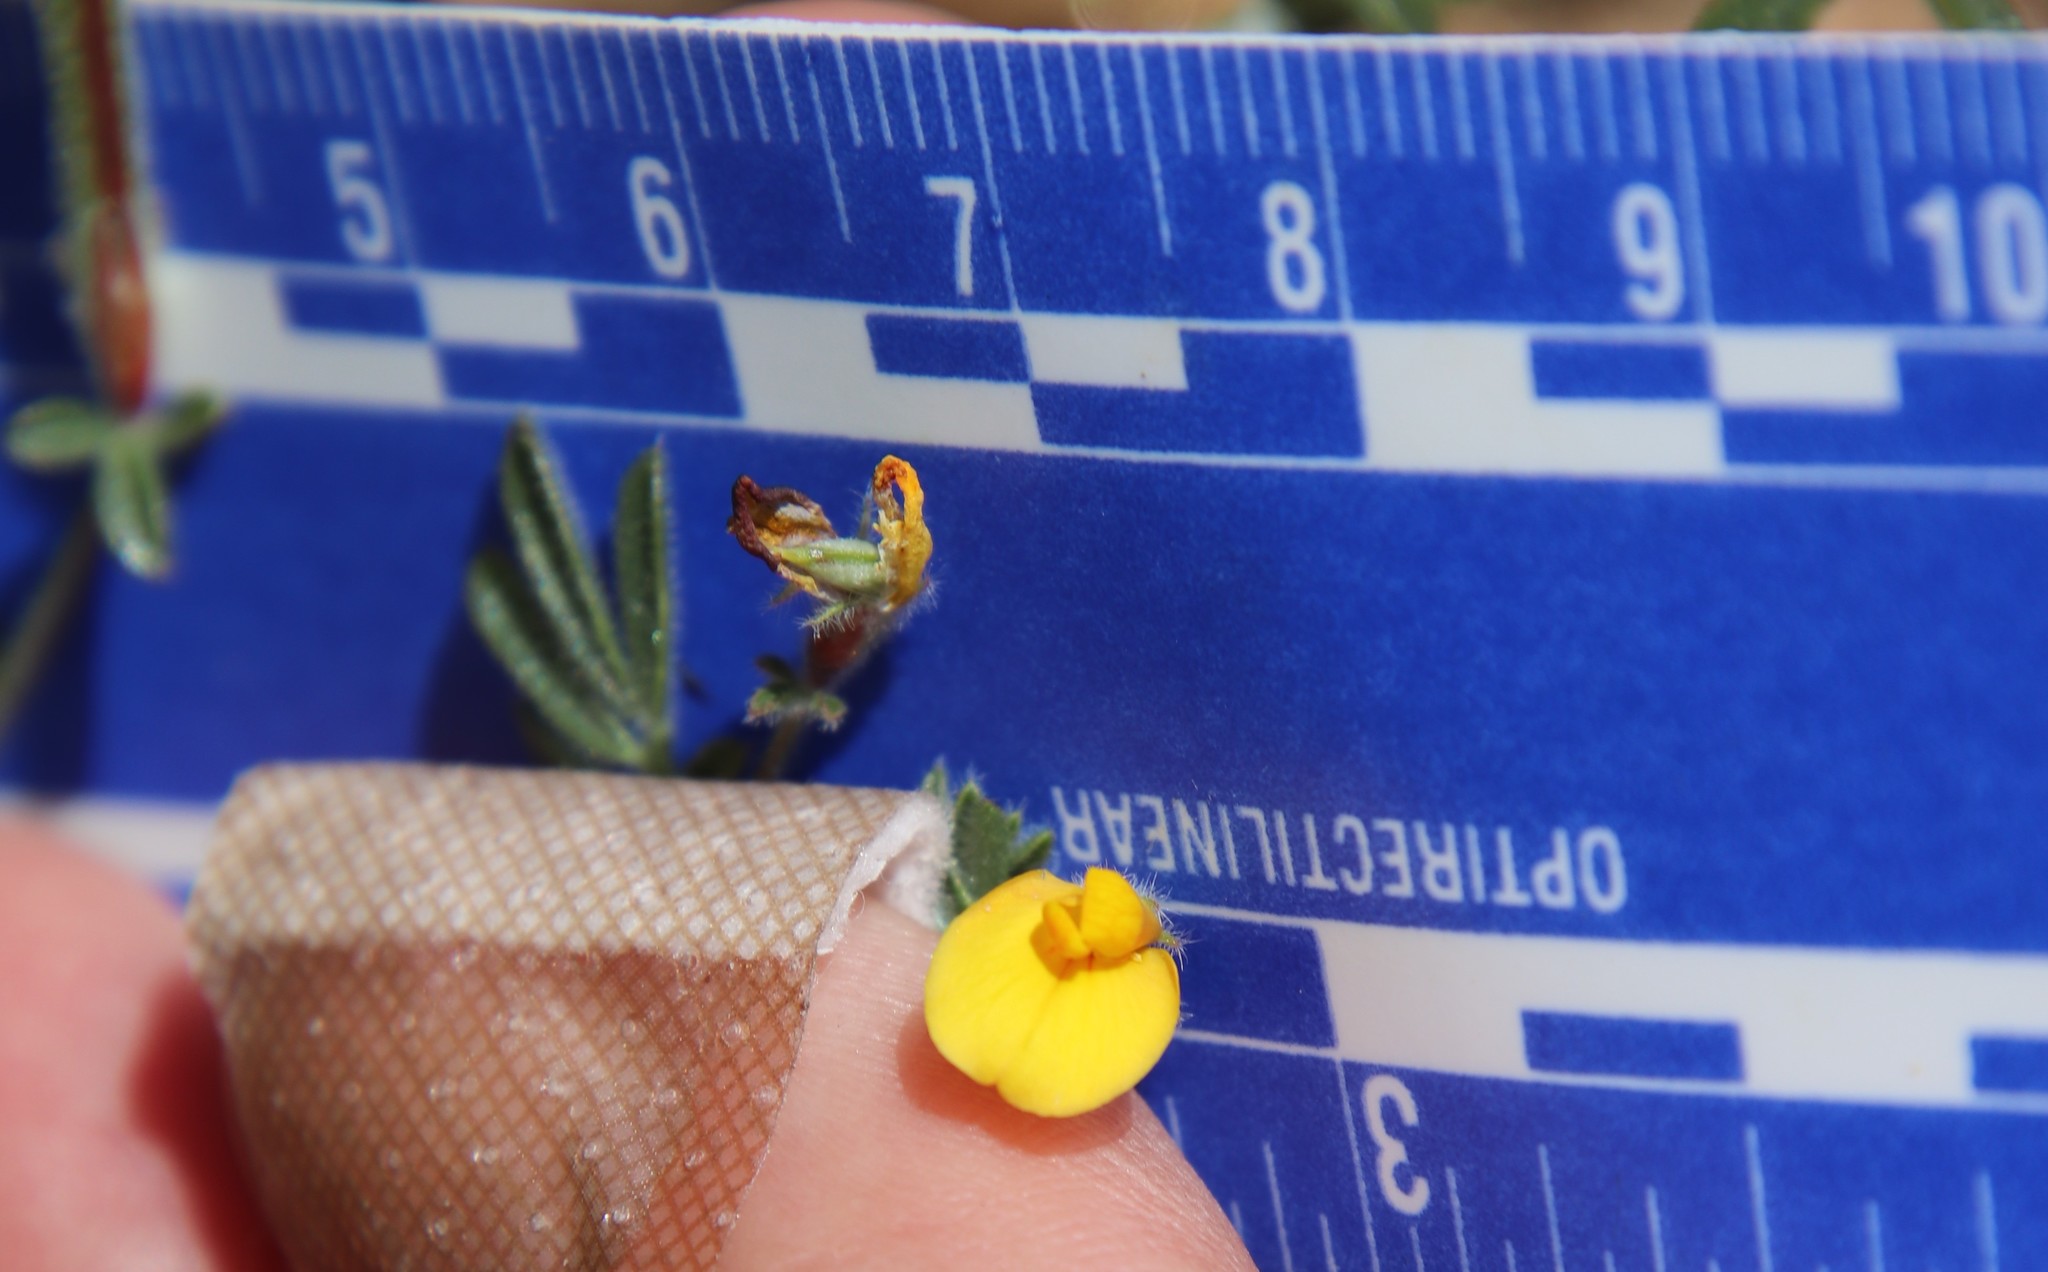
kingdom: Plantae
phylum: Tracheophyta
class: Magnoliopsida
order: Fabales
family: Fabaceae
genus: Acmispon
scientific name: Acmispon strigosus
